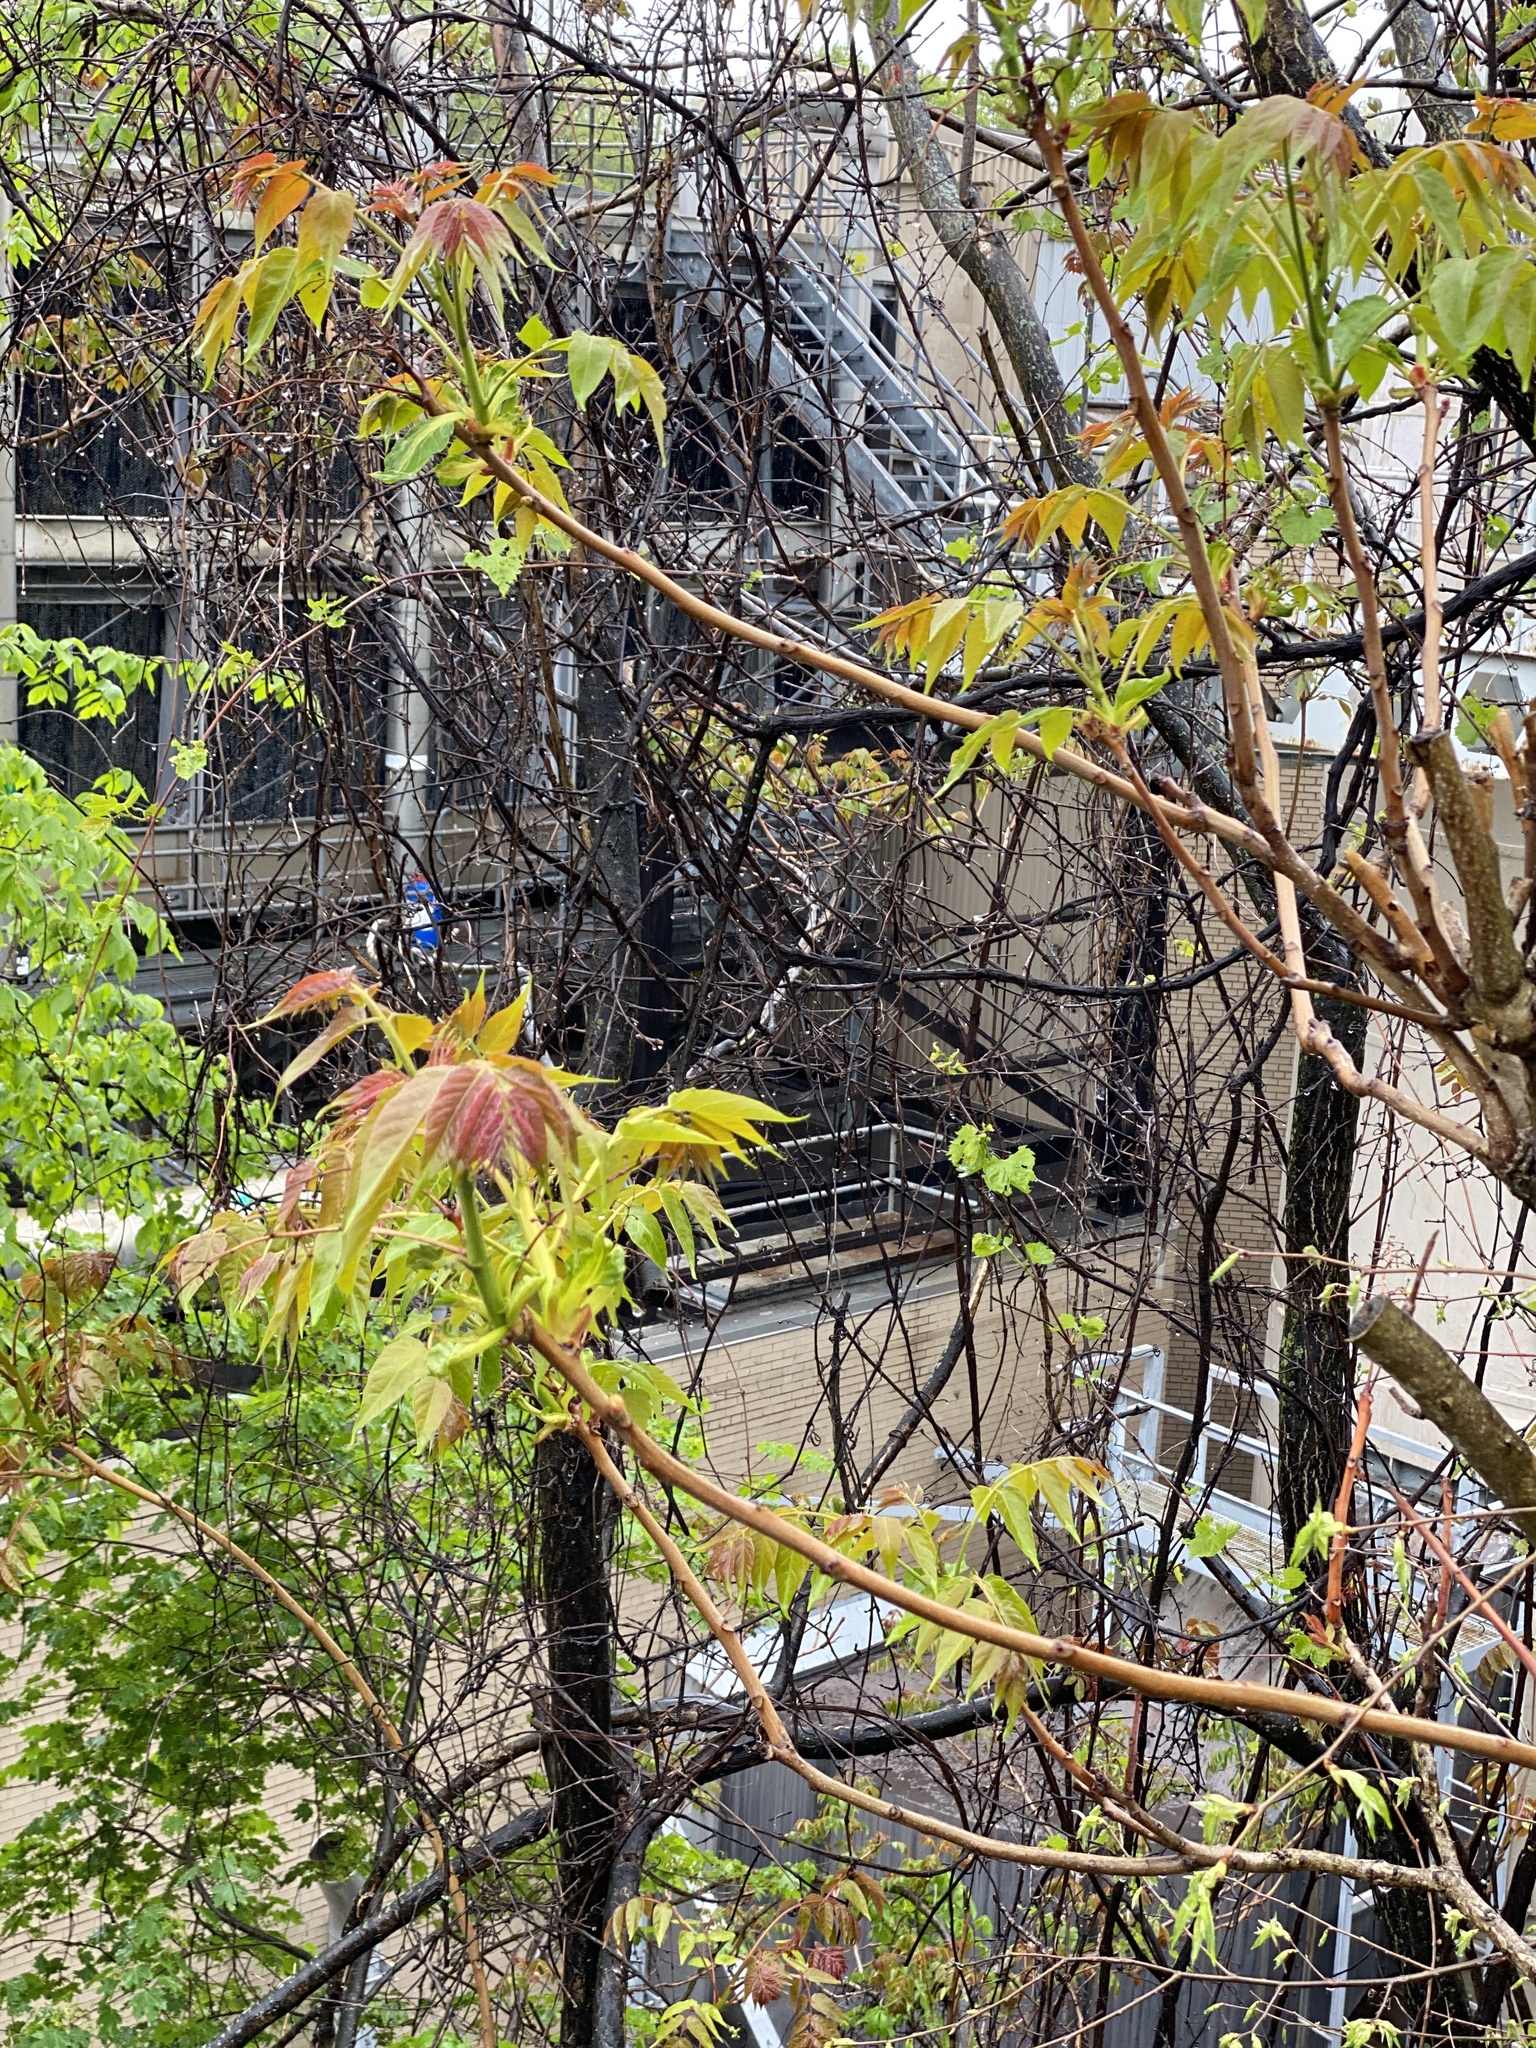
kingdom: Plantae
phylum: Tracheophyta
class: Magnoliopsida
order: Sapindales
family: Simaroubaceae
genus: Ailanthus
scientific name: Ailanthus altissima
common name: Tree-of-heaven
